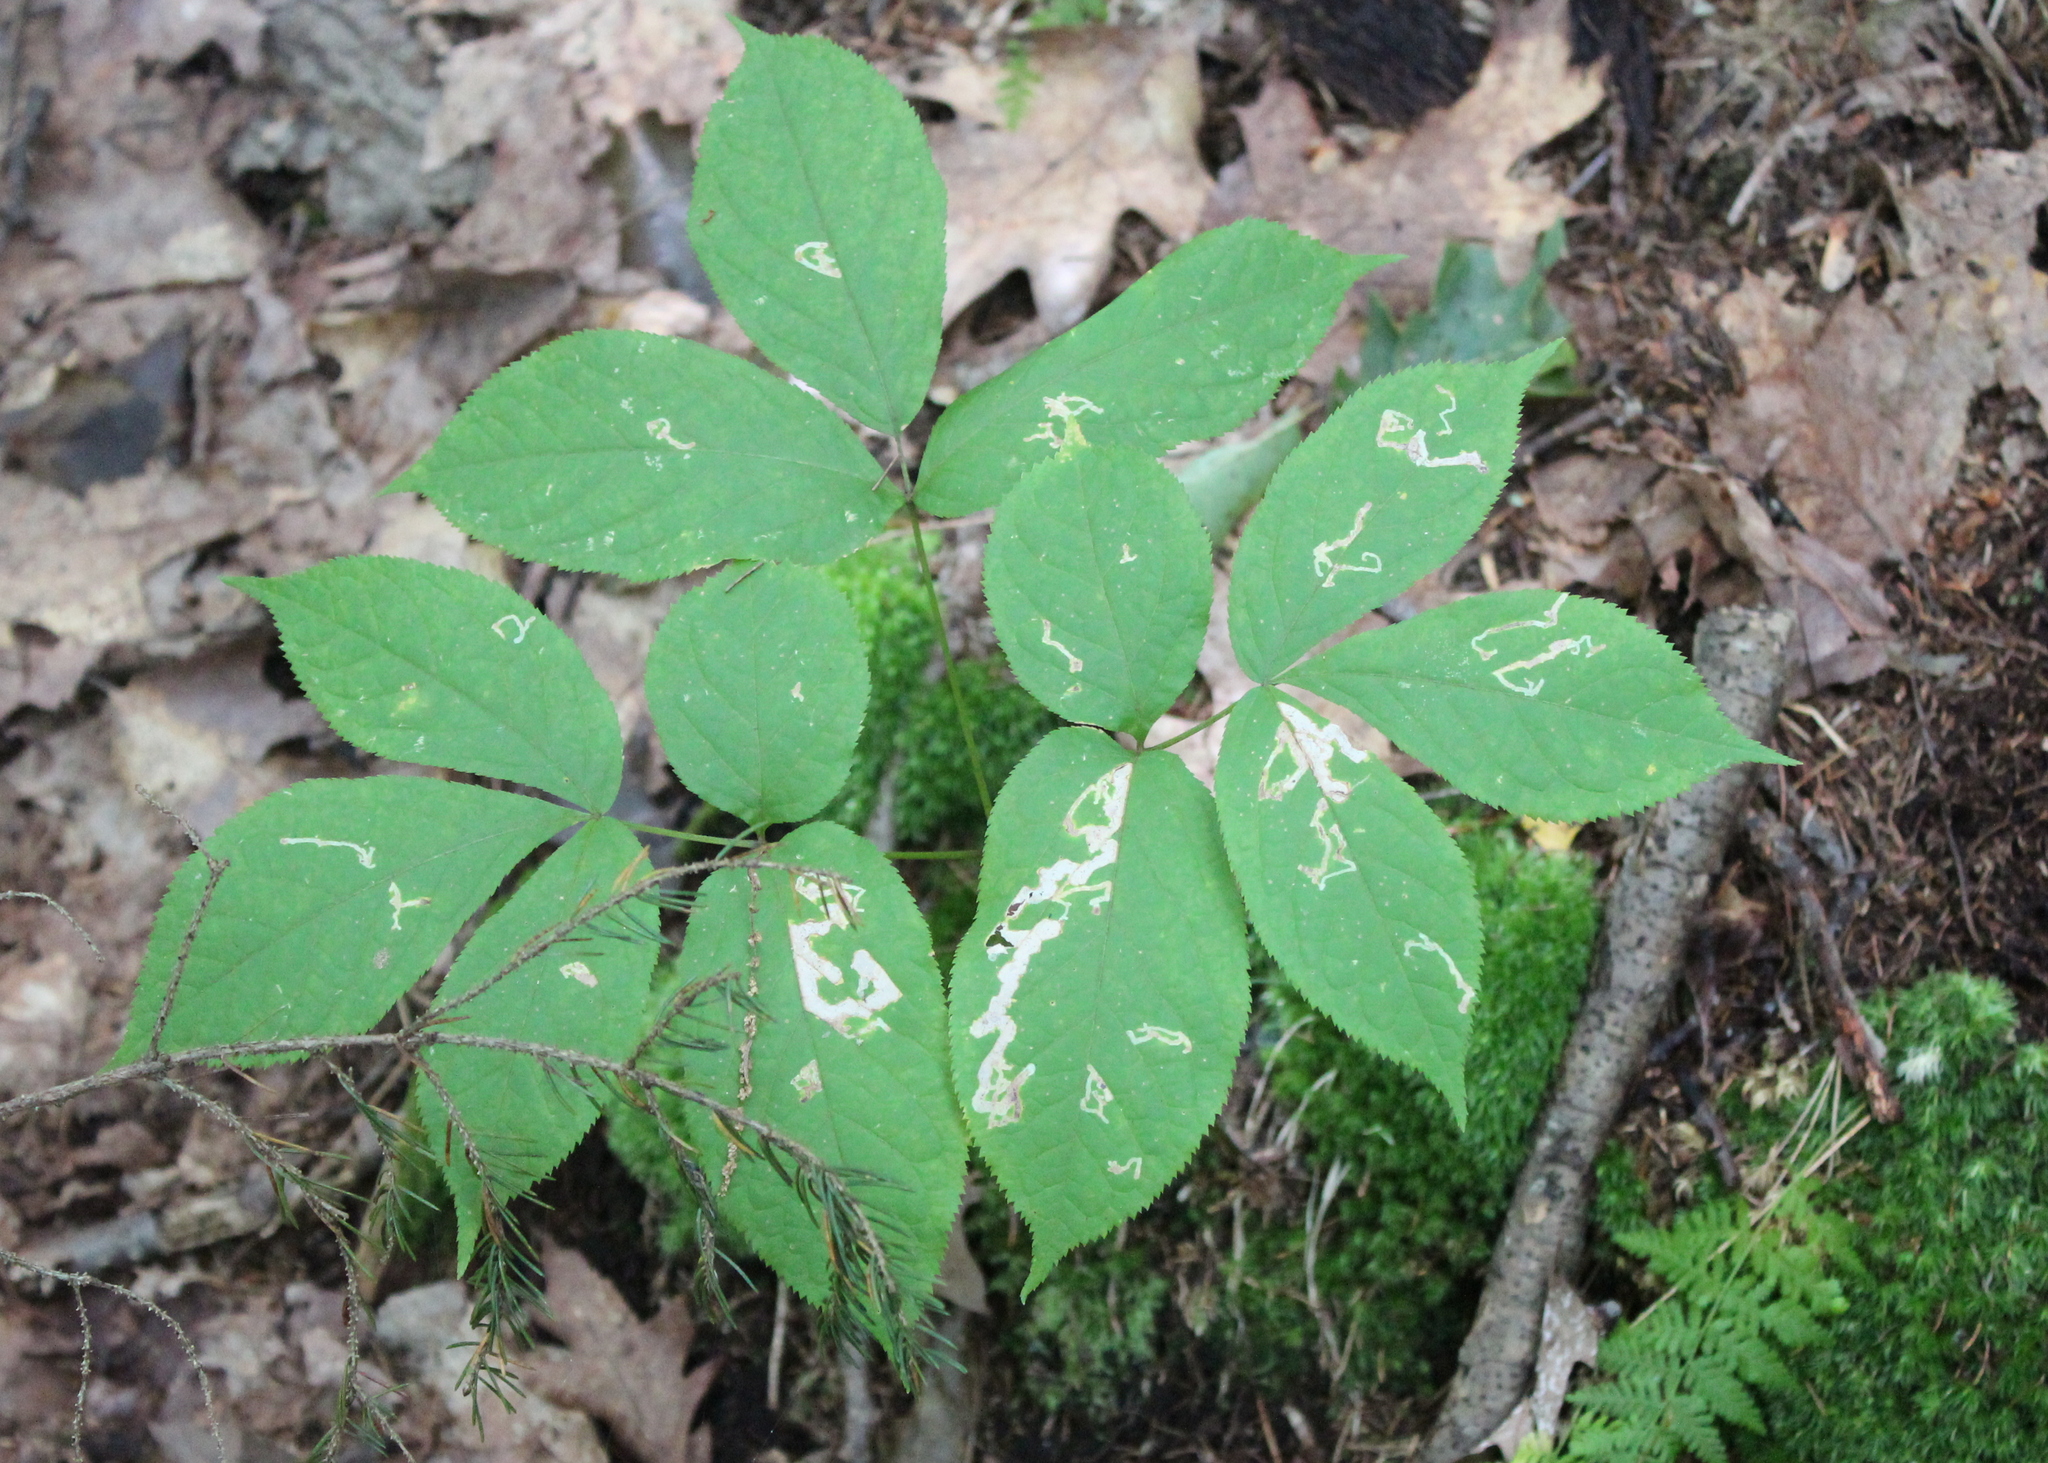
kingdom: Plantae
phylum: Tracheophyta
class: Magnoliopsida
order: Apiales
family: Araliaceae
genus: Aralia
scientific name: Aralia nudicaulis
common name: Wild sarsaparilla
